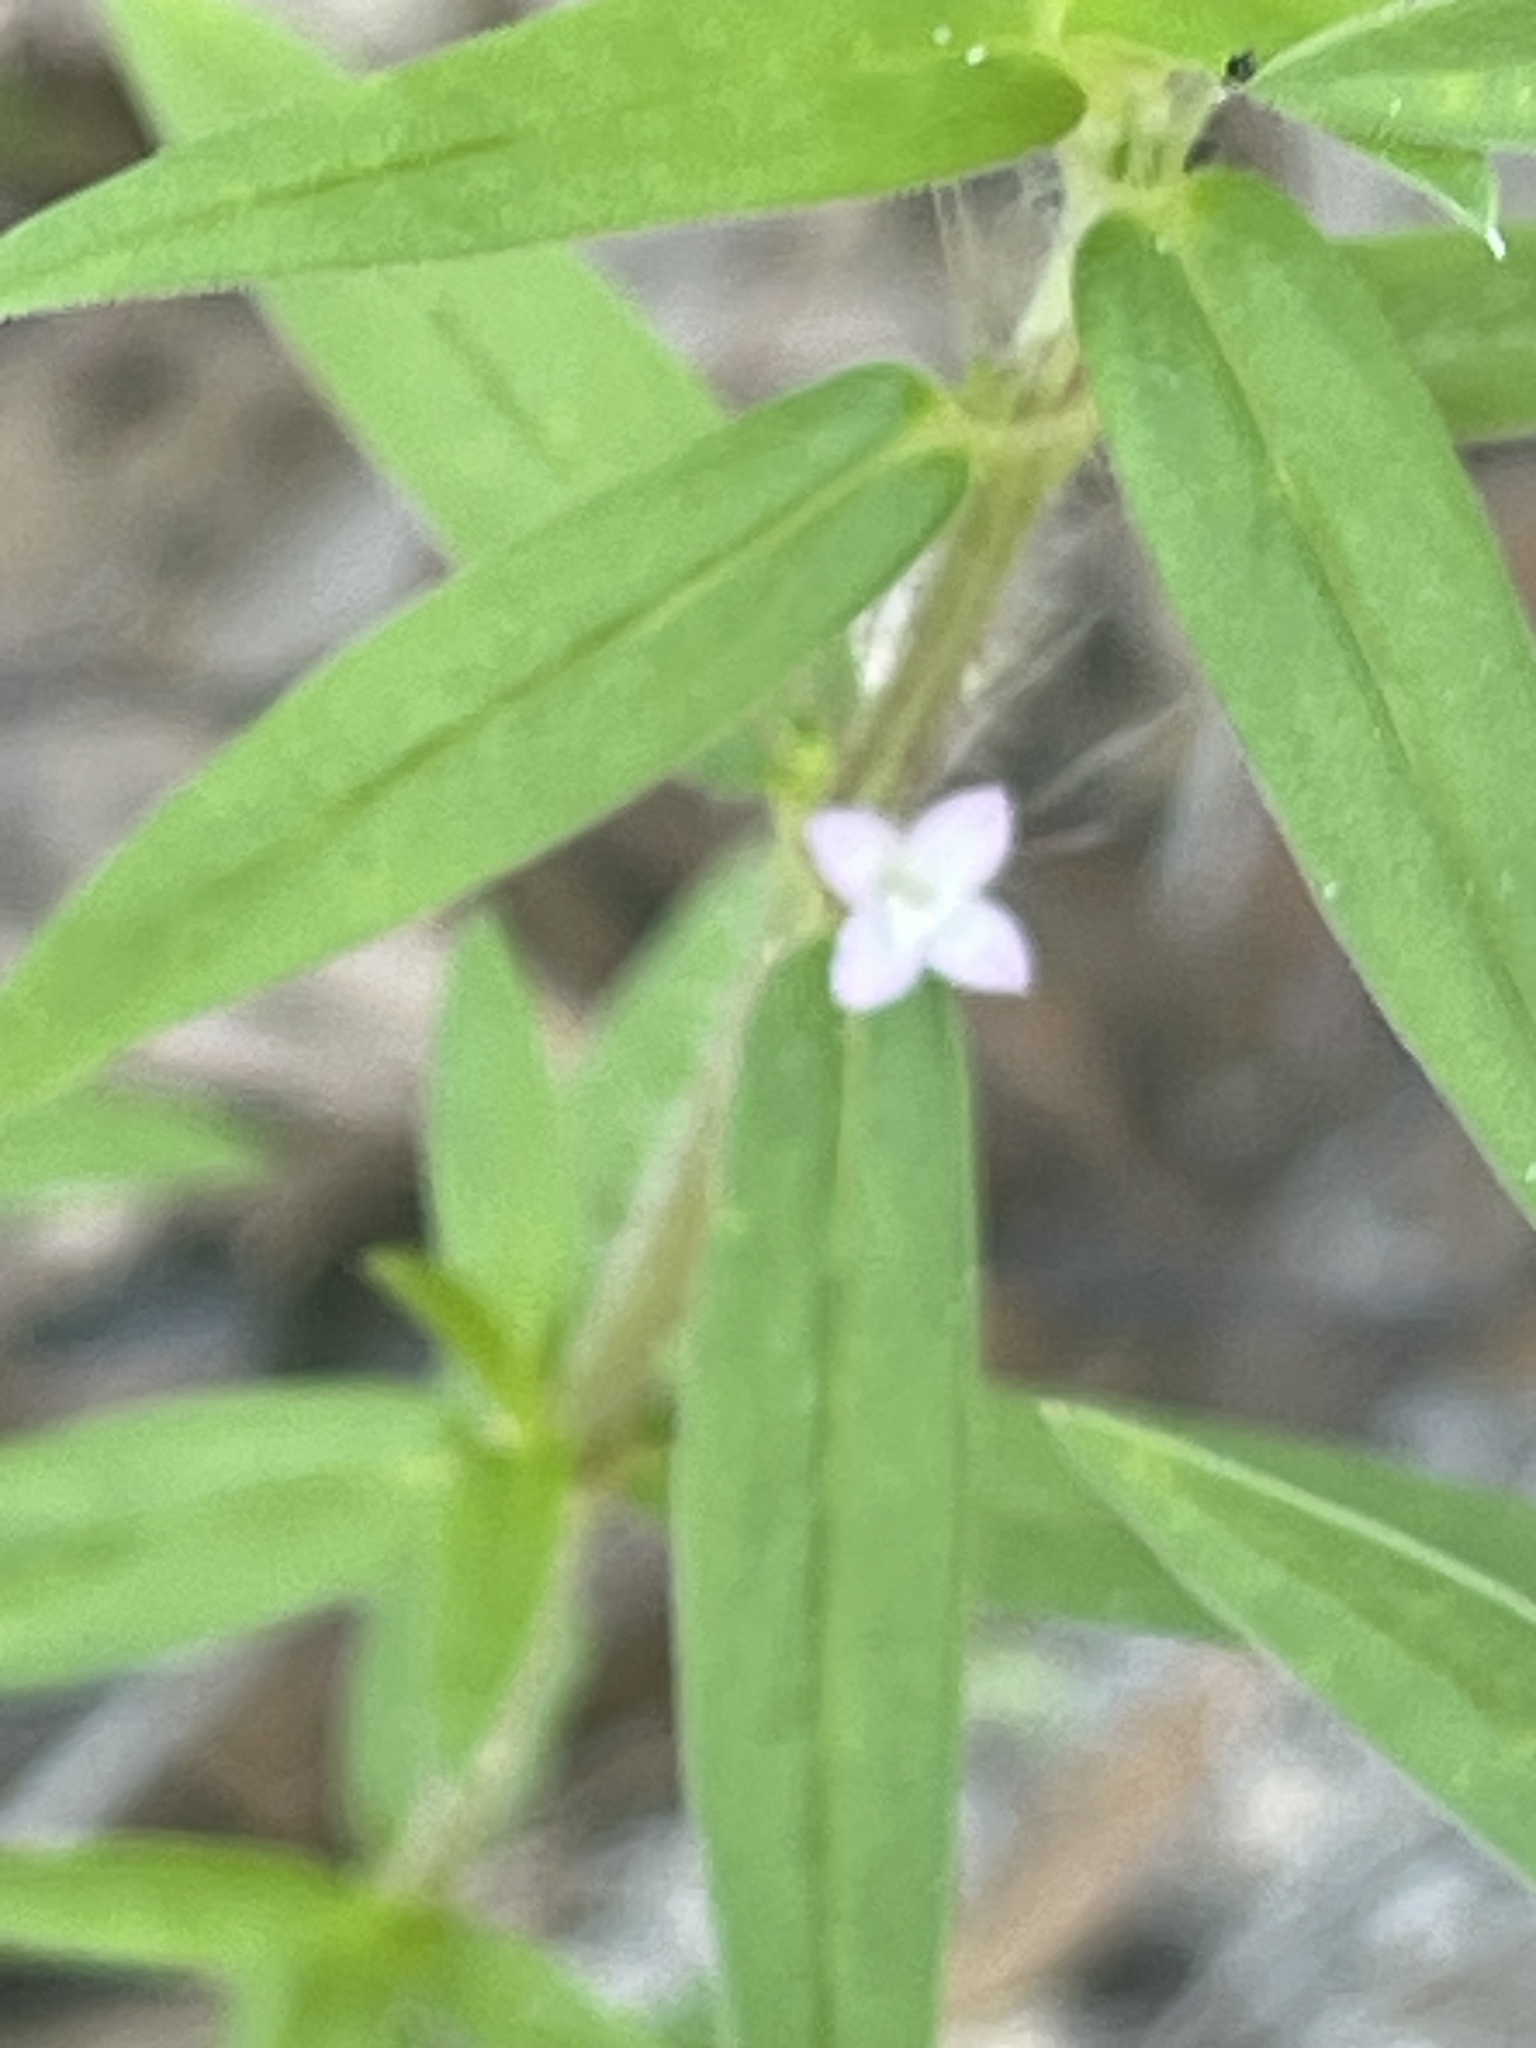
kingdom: Plantae
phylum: Tracheophyta
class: Magnoliopsida
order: Gentianales
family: Rubiaceae
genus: Hexasepalum
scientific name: Hexasepalum teres
